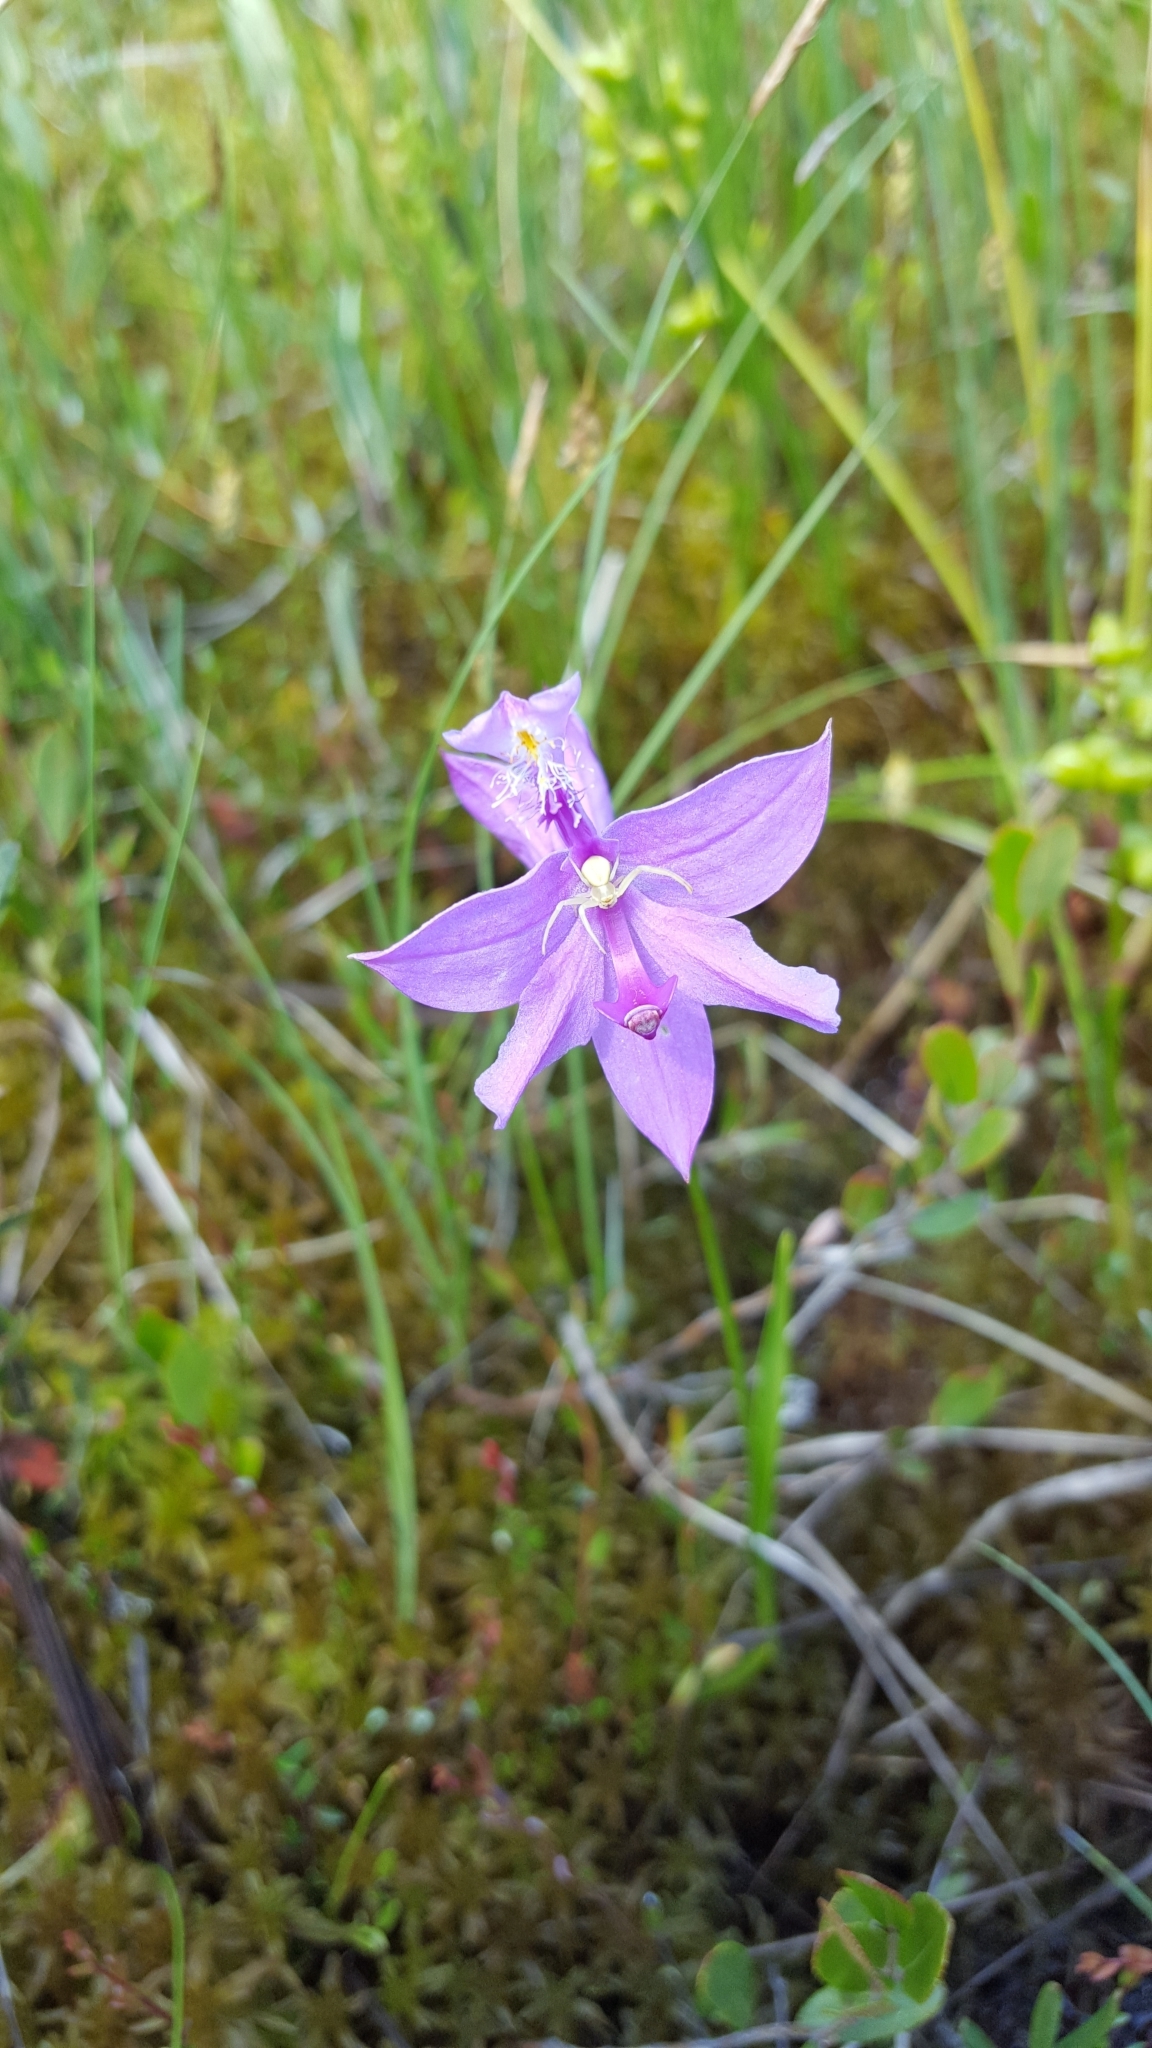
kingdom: Plantae
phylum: Tracheophyta
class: Liliopsida
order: Asparagales
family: Orchidaceae
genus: Calopogon
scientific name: Calopogon tuberosus
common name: Grass-pink
